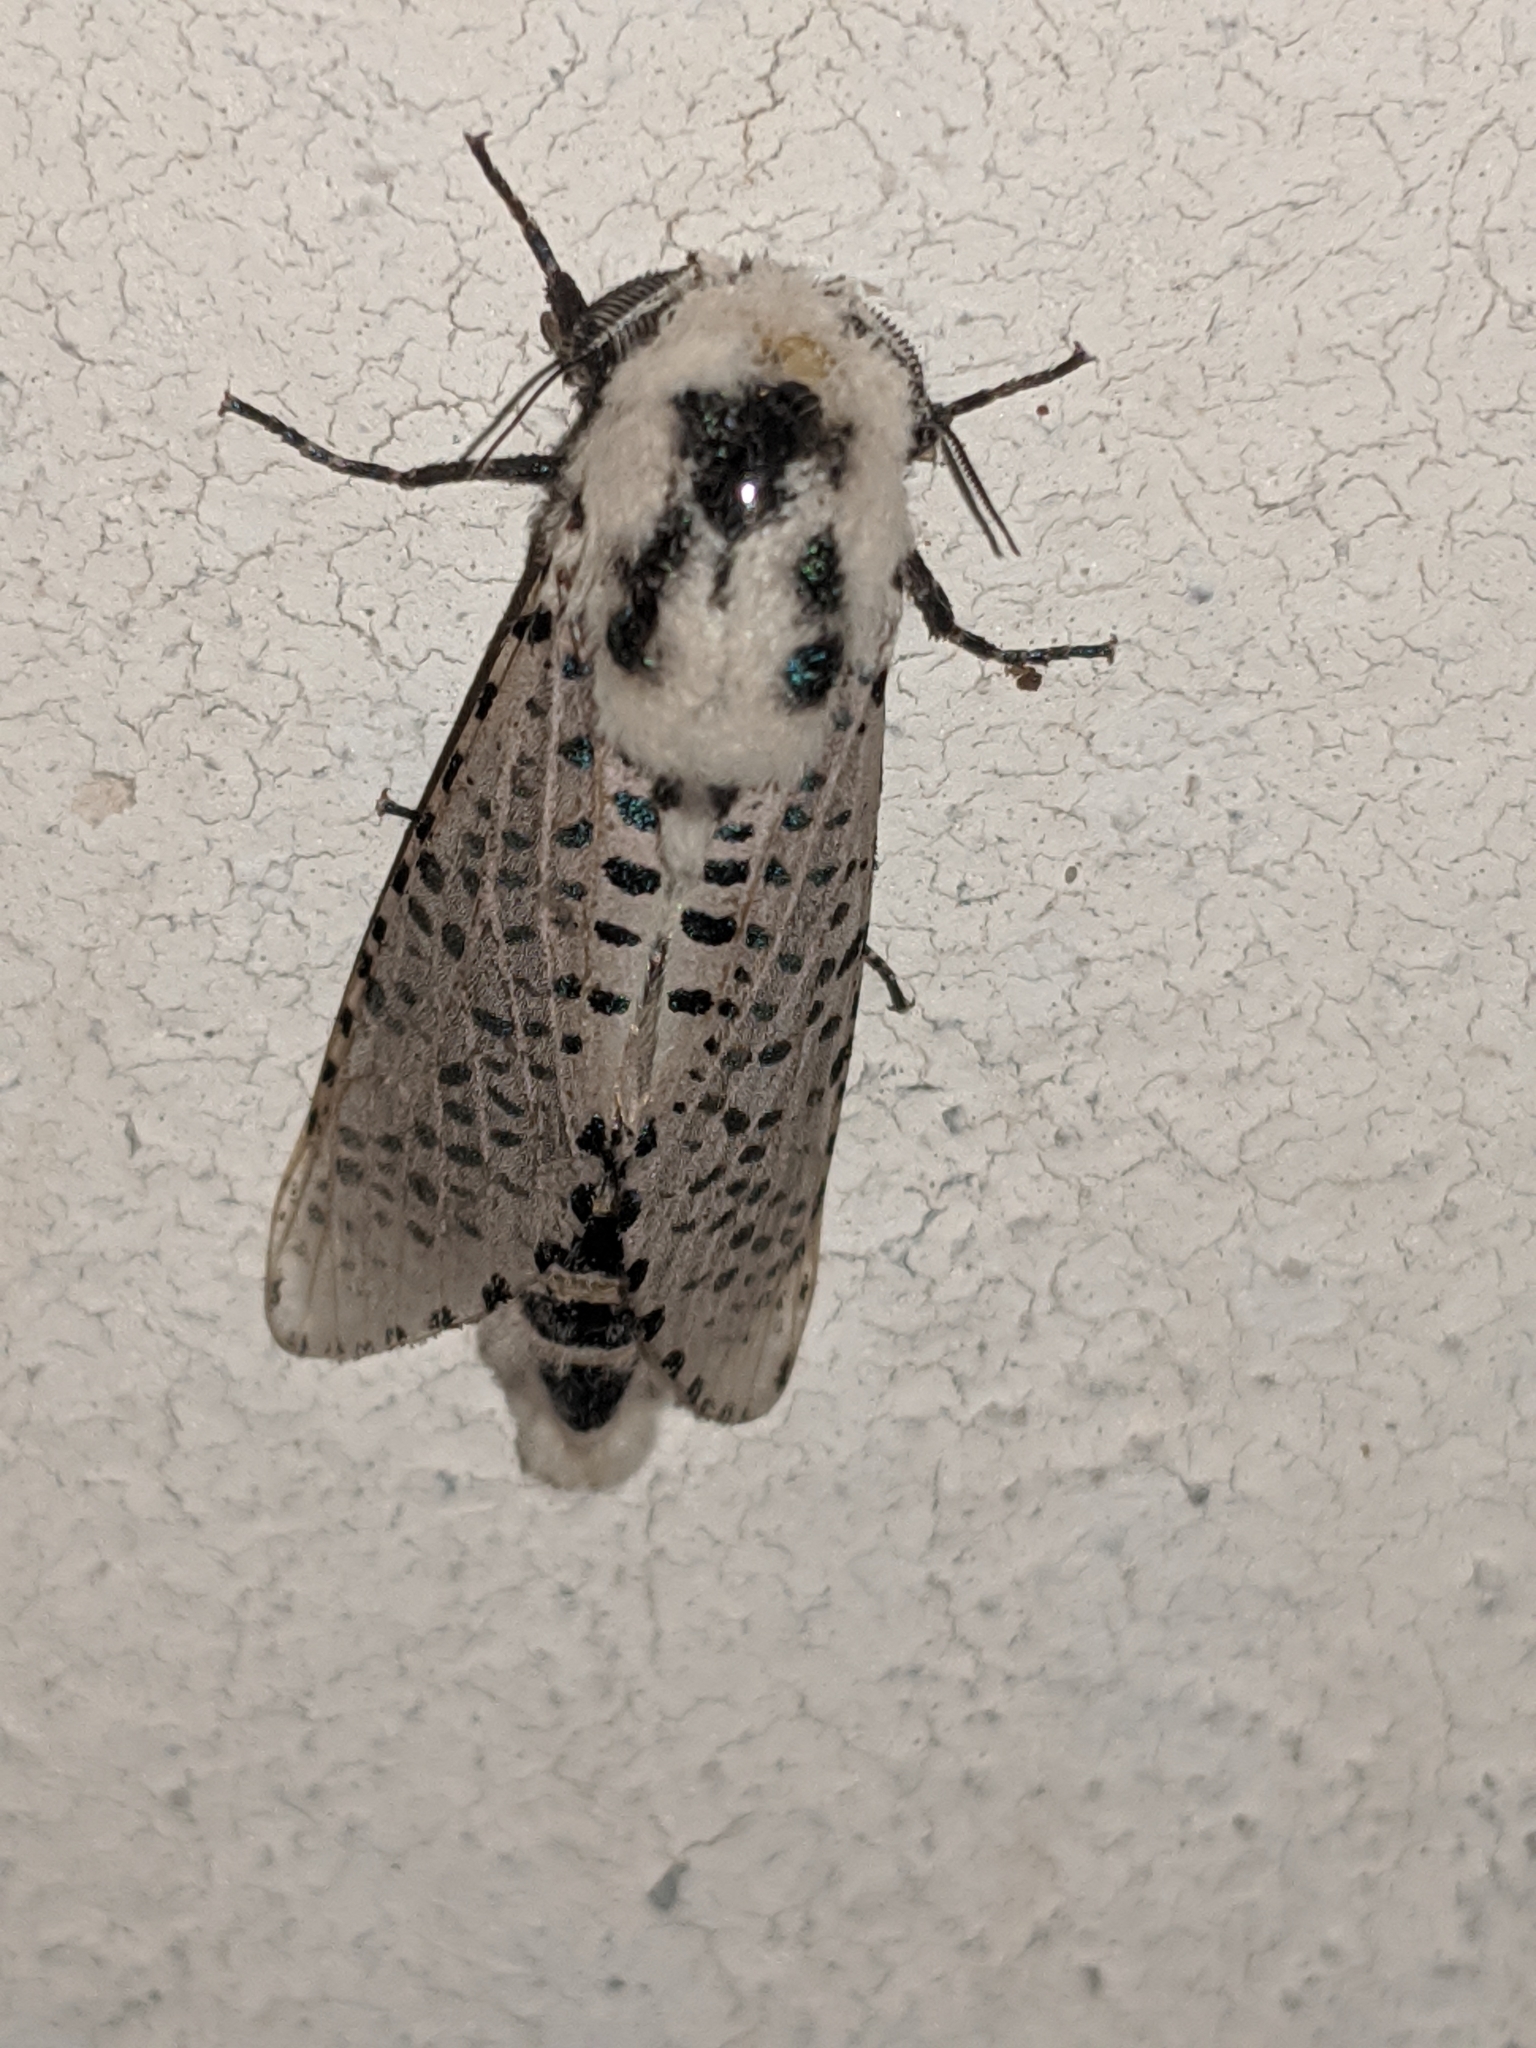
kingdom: Animalia
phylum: Arthropoda
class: Insecta
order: Lepidoptera
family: Cossidae
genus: Zeuzera
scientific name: Zeuzera pyrina
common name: Leopard moth
